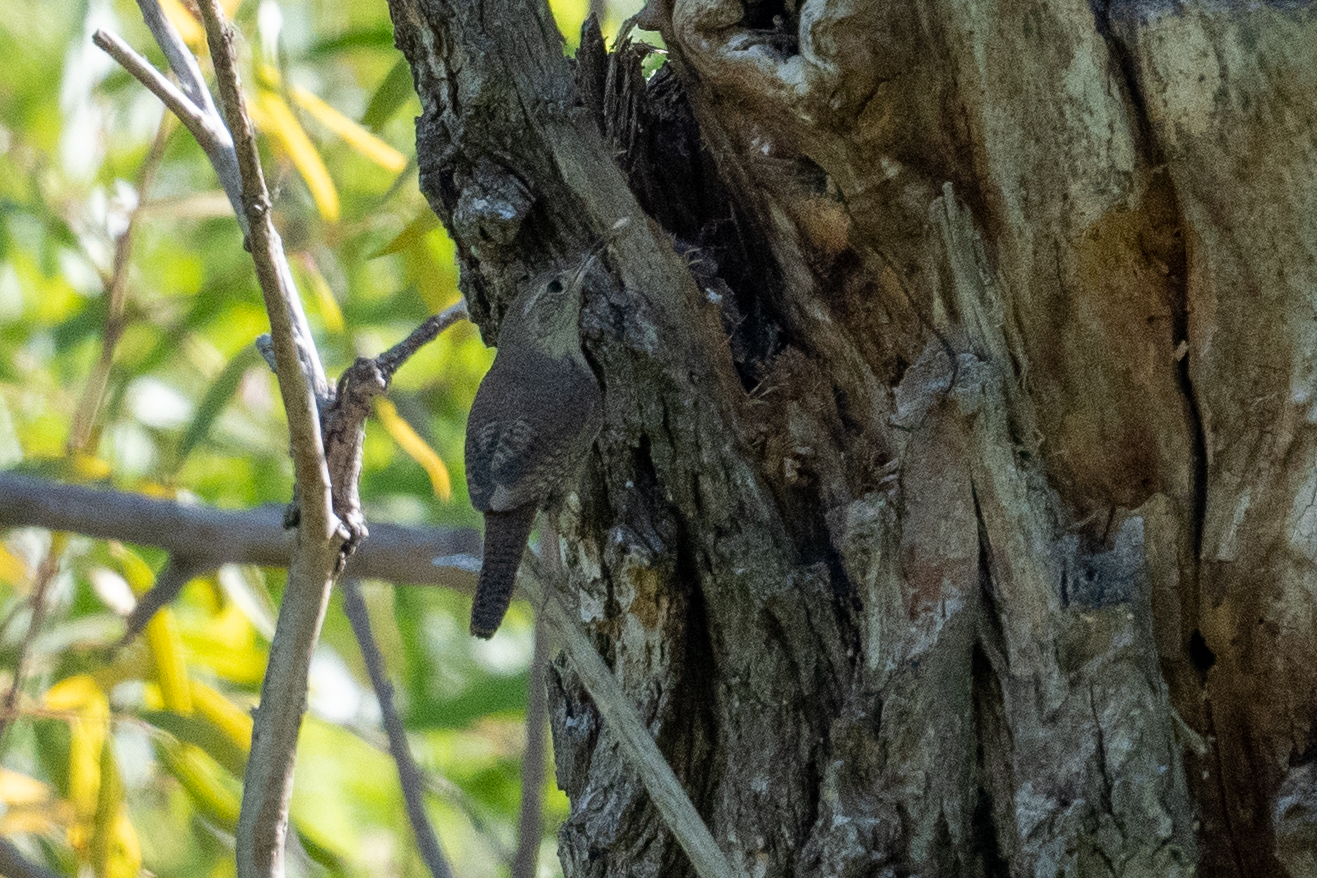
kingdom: Animalia
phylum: Chordata
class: Aves
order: Passeriformes
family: Troglodytidae
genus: Troglodytes
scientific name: Troglodytes aedon
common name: House wren
